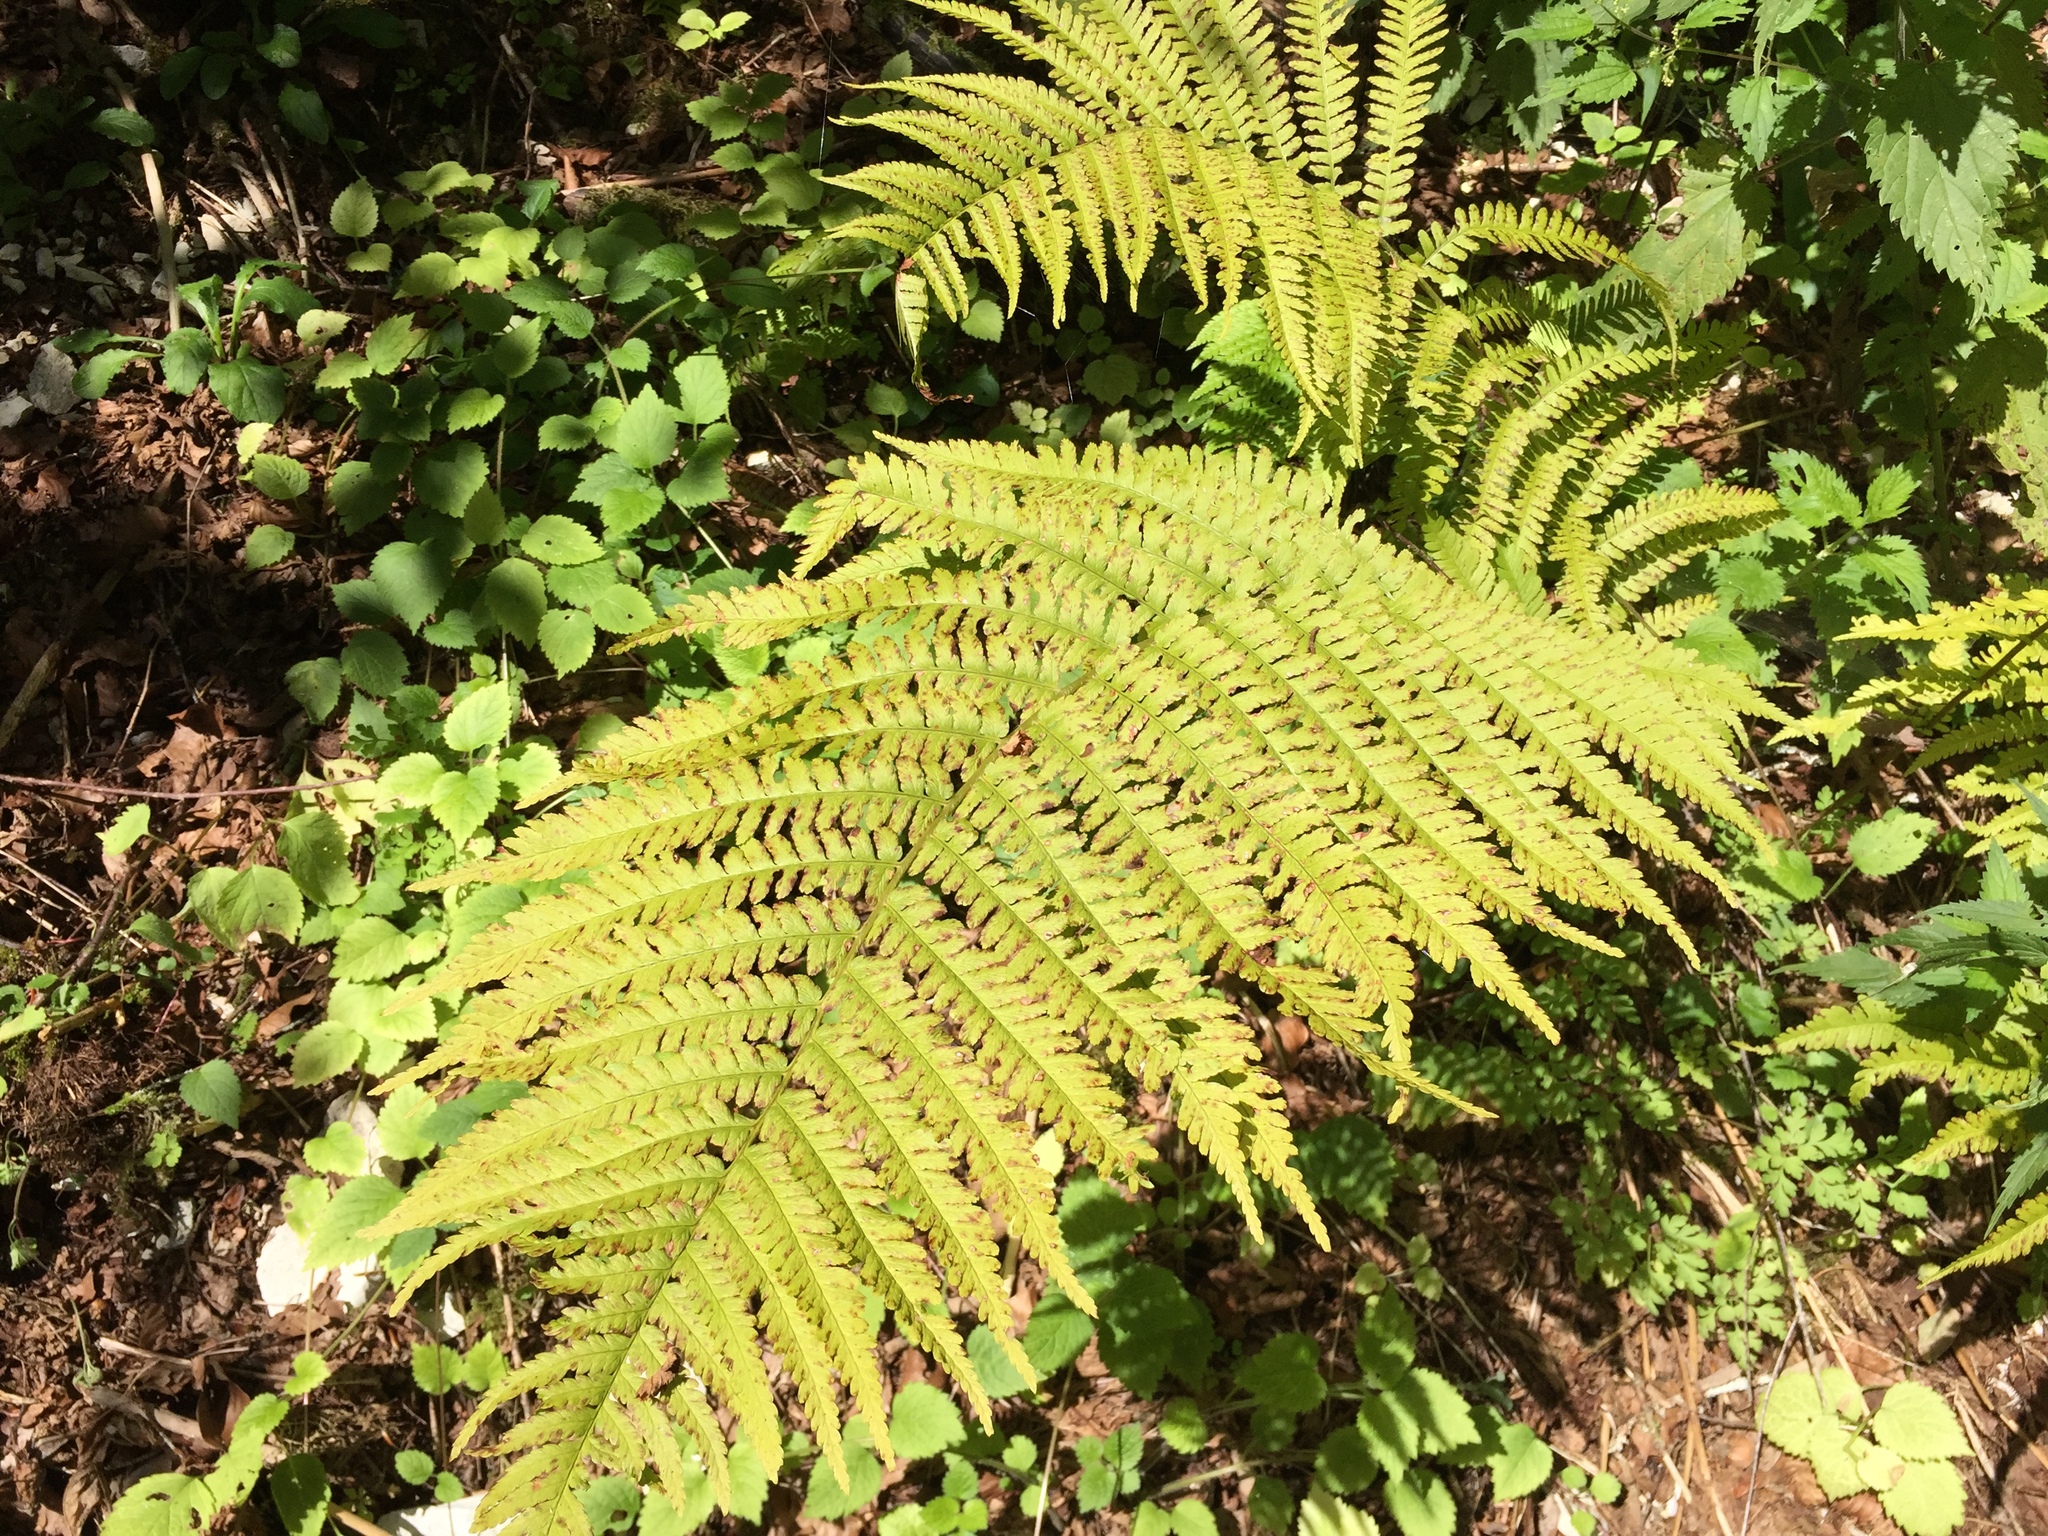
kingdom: Plantae
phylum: Tracheophyta
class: Polypodiopsida
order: Polypodiales
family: Dryopteridaceae
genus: Dryopteris
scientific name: Dryopteris filix-mas
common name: Male fern
